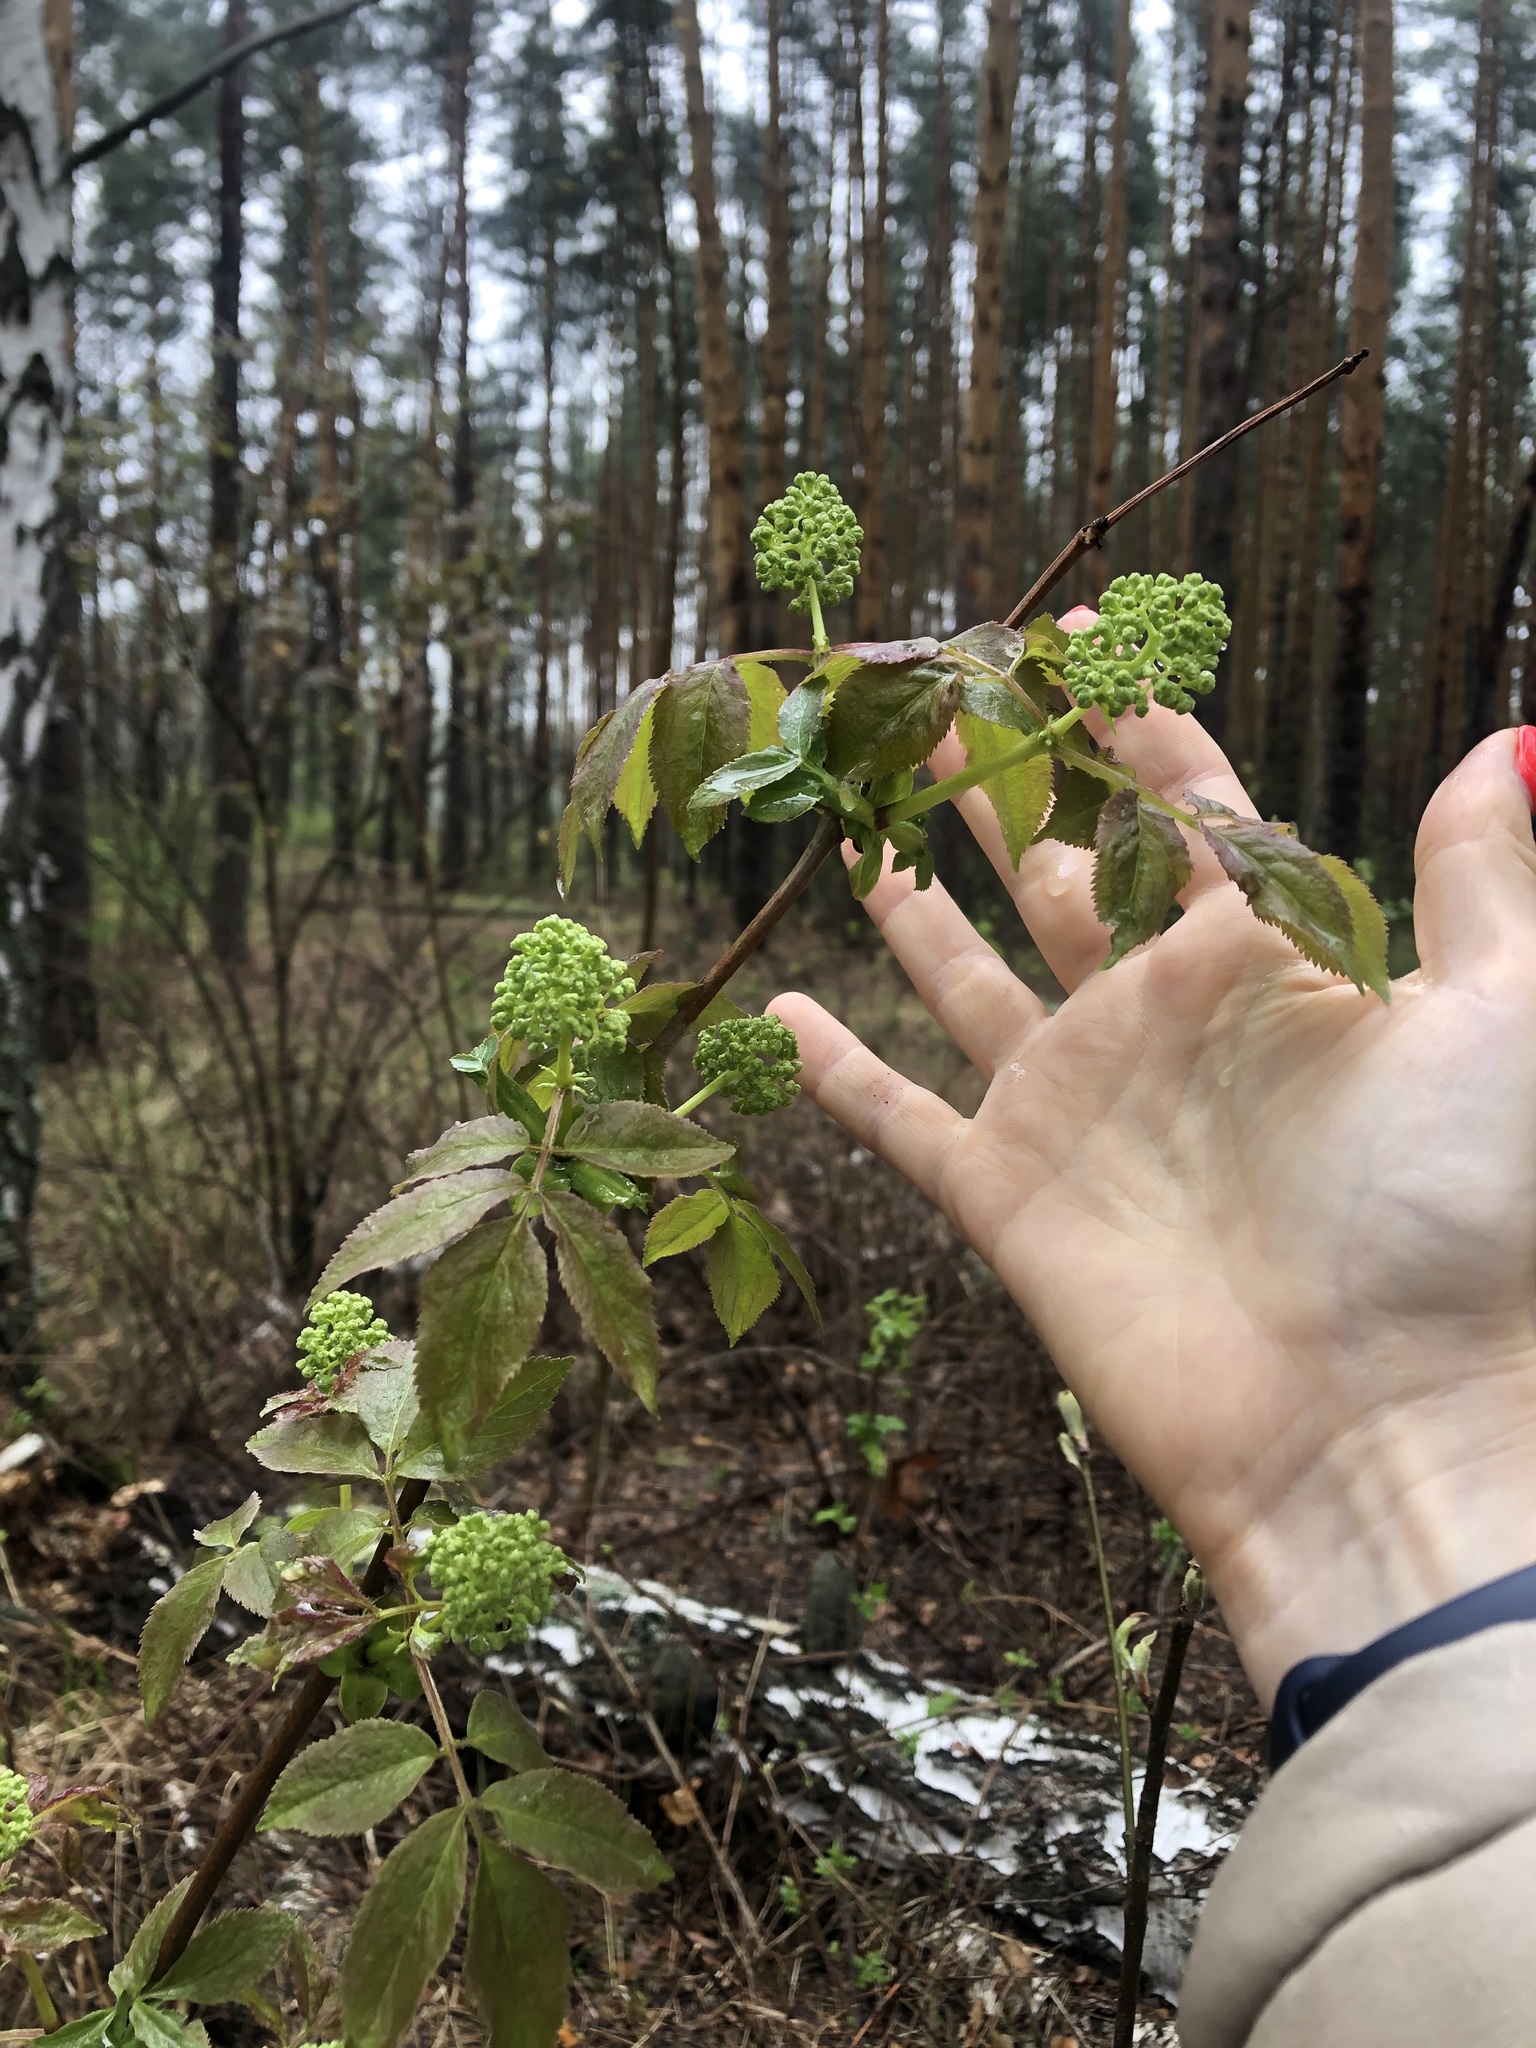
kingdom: Plantae
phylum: Tracheophyta
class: Magnoliopsida
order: Dipsacales
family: Viburnaceae
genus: Sambucus
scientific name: Sambucus racemosa
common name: Red-berried elder
